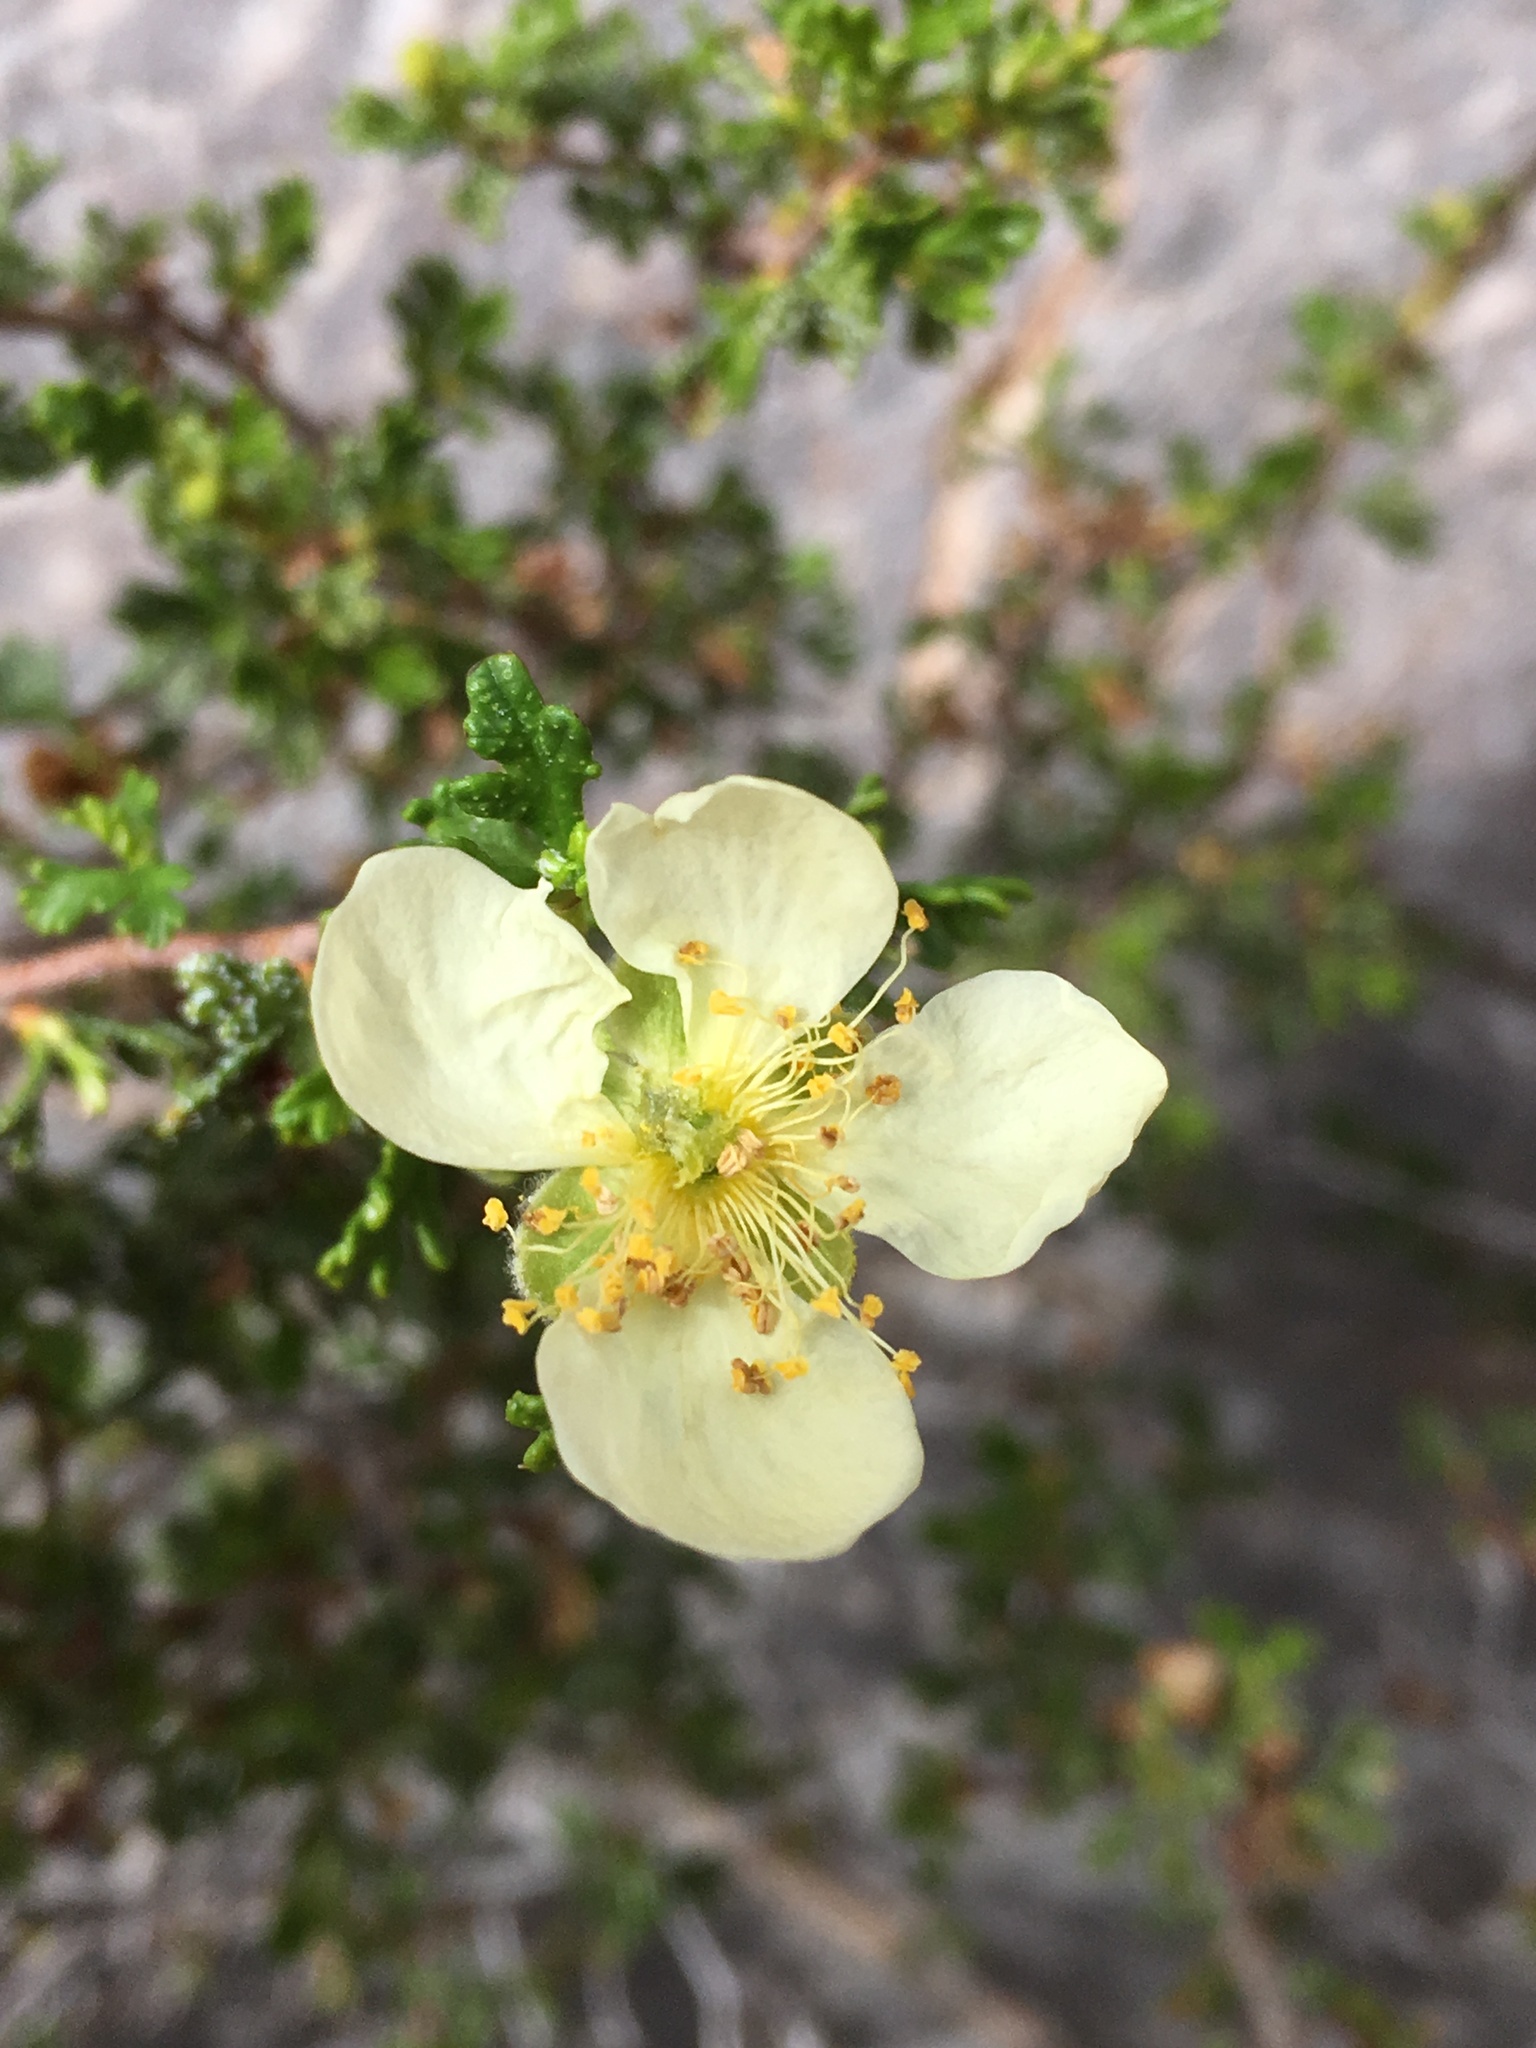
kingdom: Plantae
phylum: Tracheophyta
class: Magnoliopsida
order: Rosales
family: Rosaceae
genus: Purshia
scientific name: Purshia stansburiana
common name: Stansbury's cliffrose
